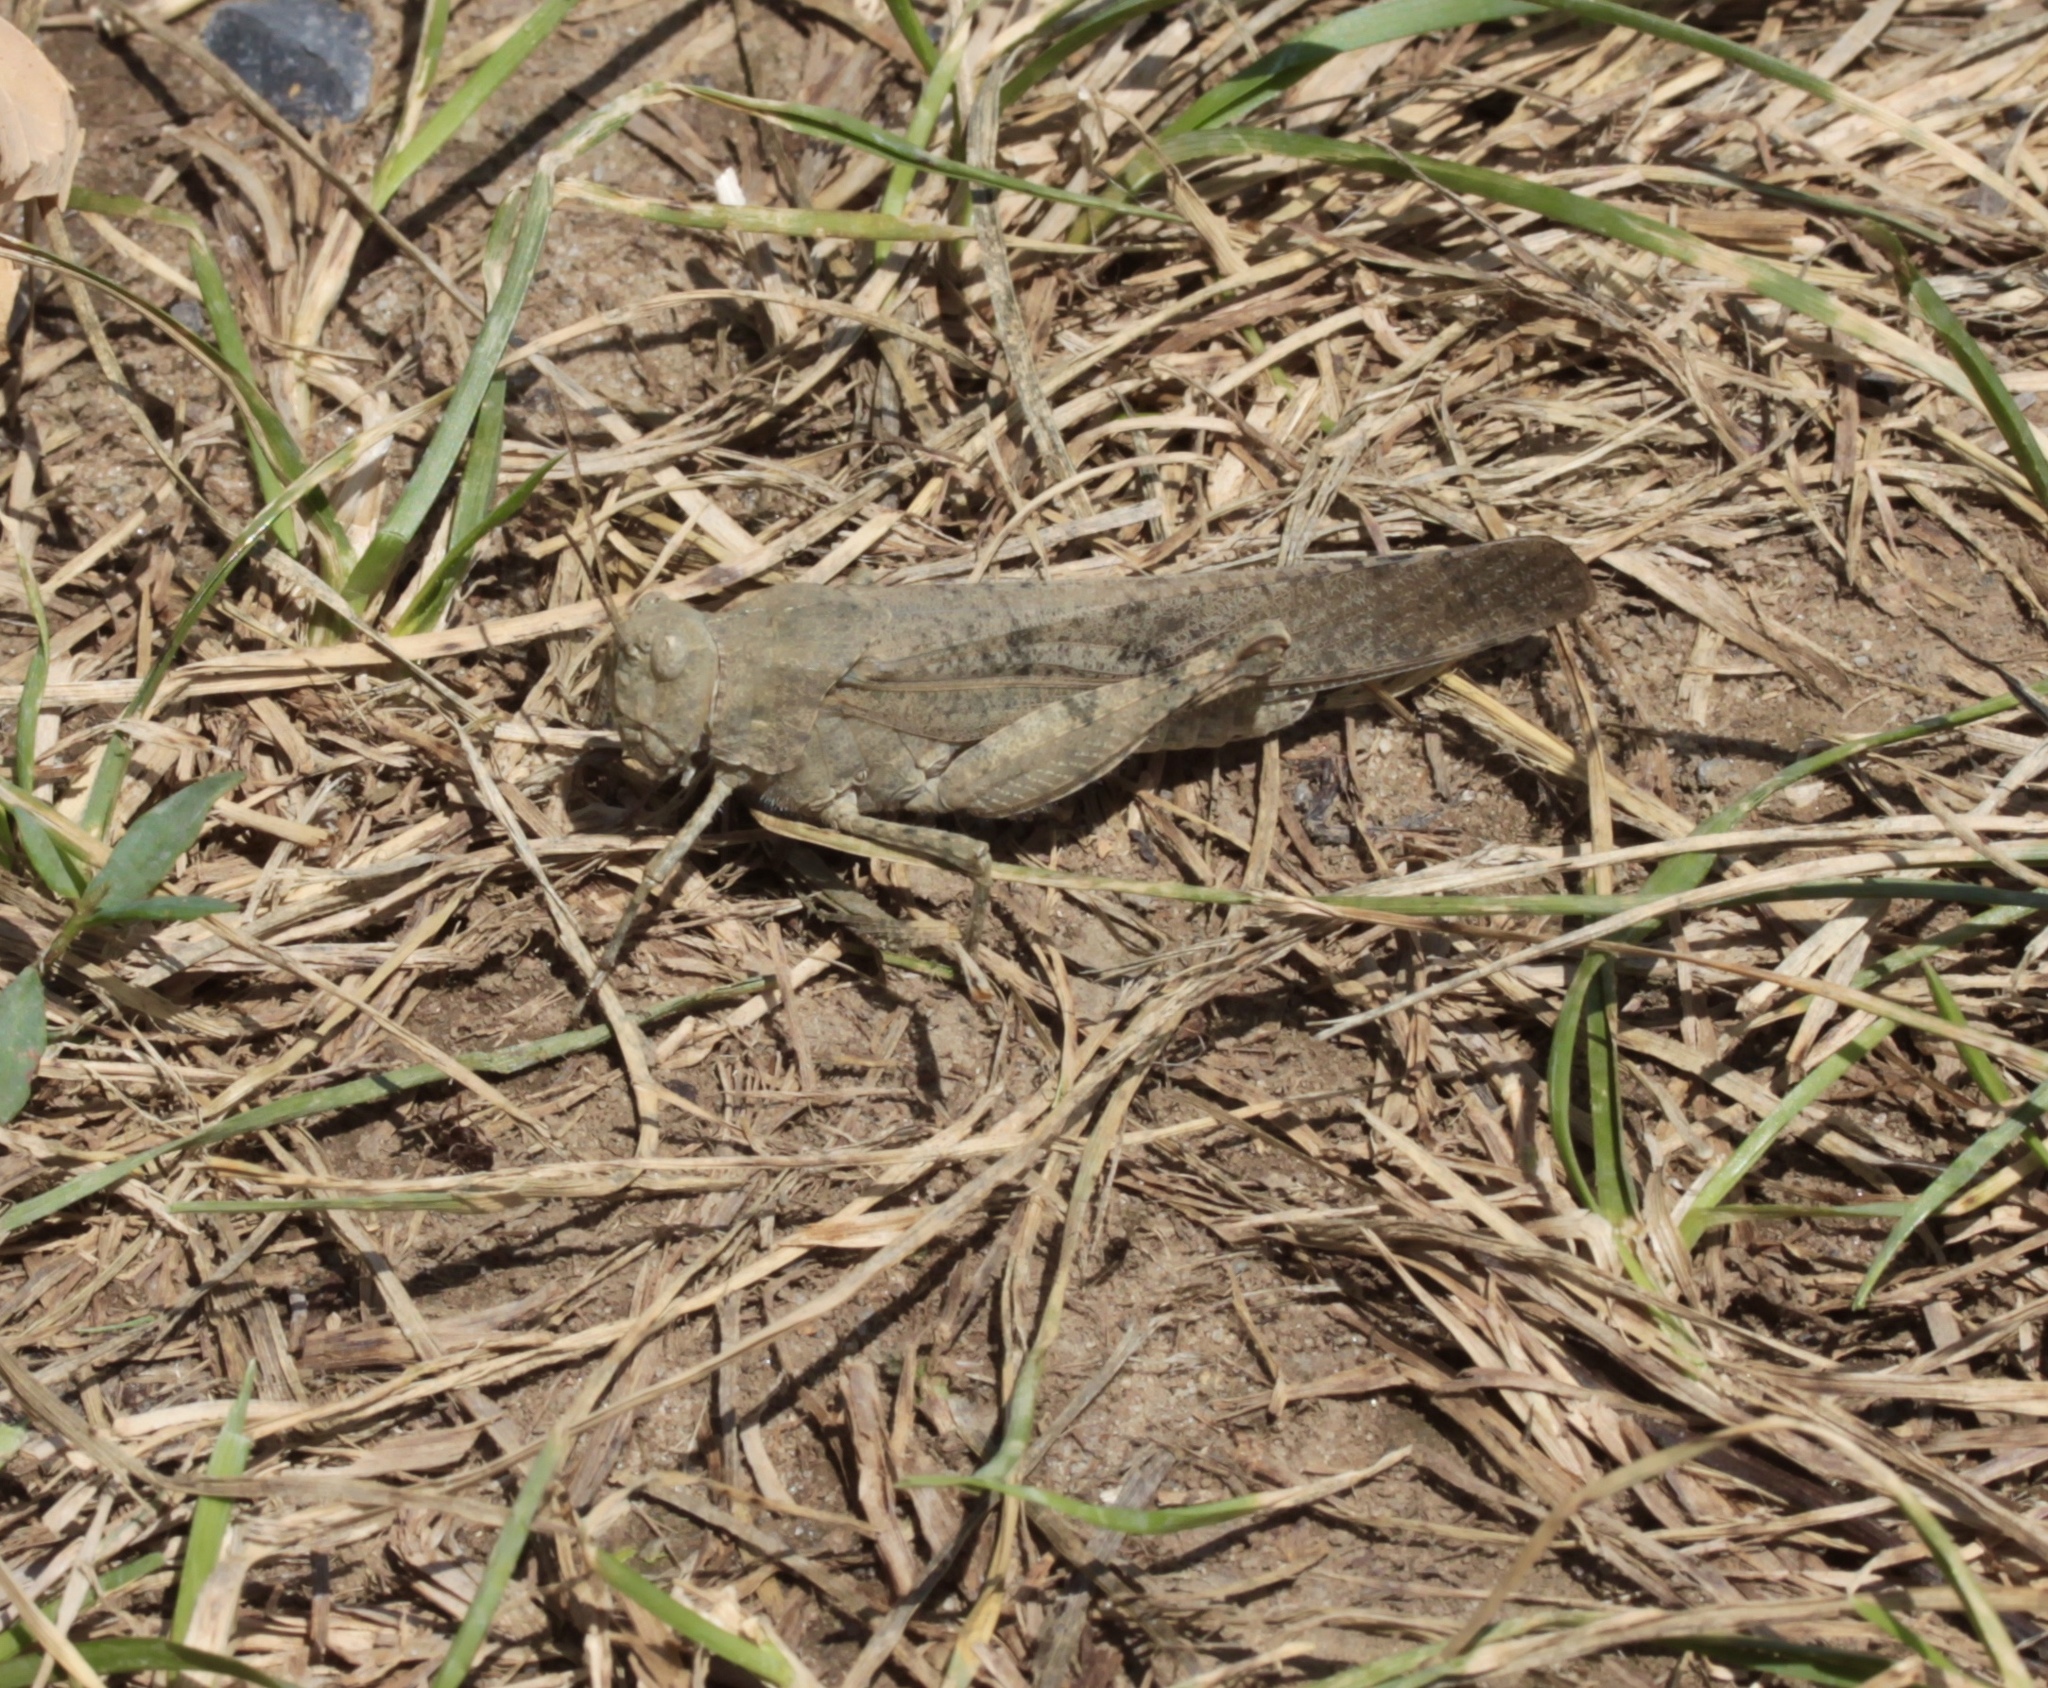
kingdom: Animalia
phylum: Arthropoda
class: Insecta
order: Orthoptera
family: Acrididae
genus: Dissosteira
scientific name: Dissosteira carolina
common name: Carolina grasshopper
